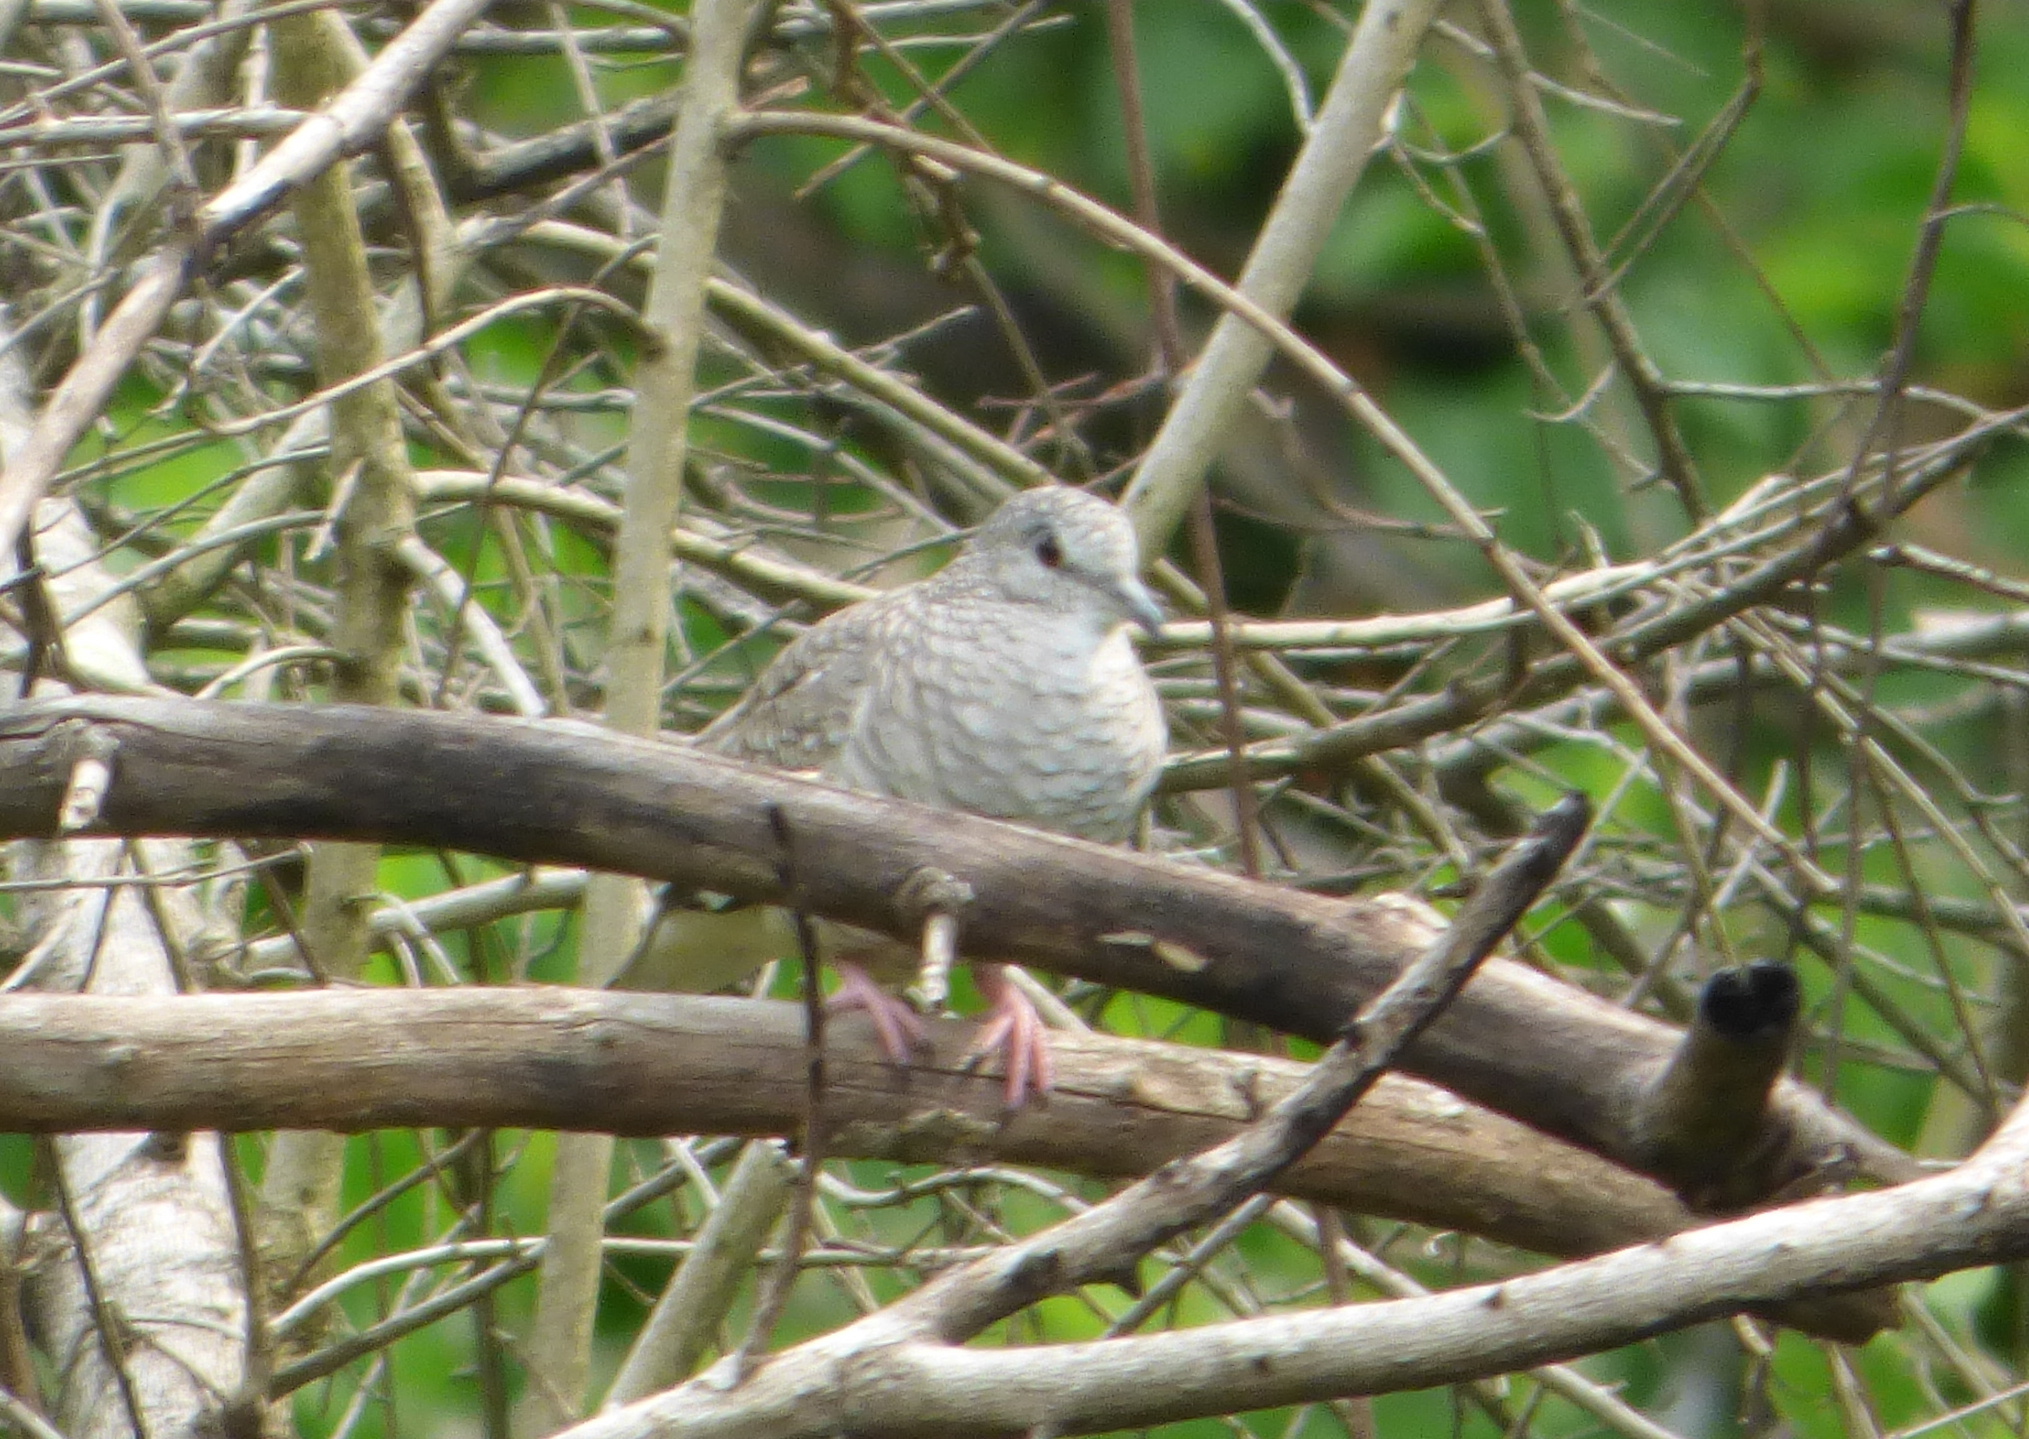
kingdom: Animalia
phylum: Chordata
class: Aves
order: Columbiformes
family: Columbidae
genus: Columbina
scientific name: Columbina squammata
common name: Scaled dove
